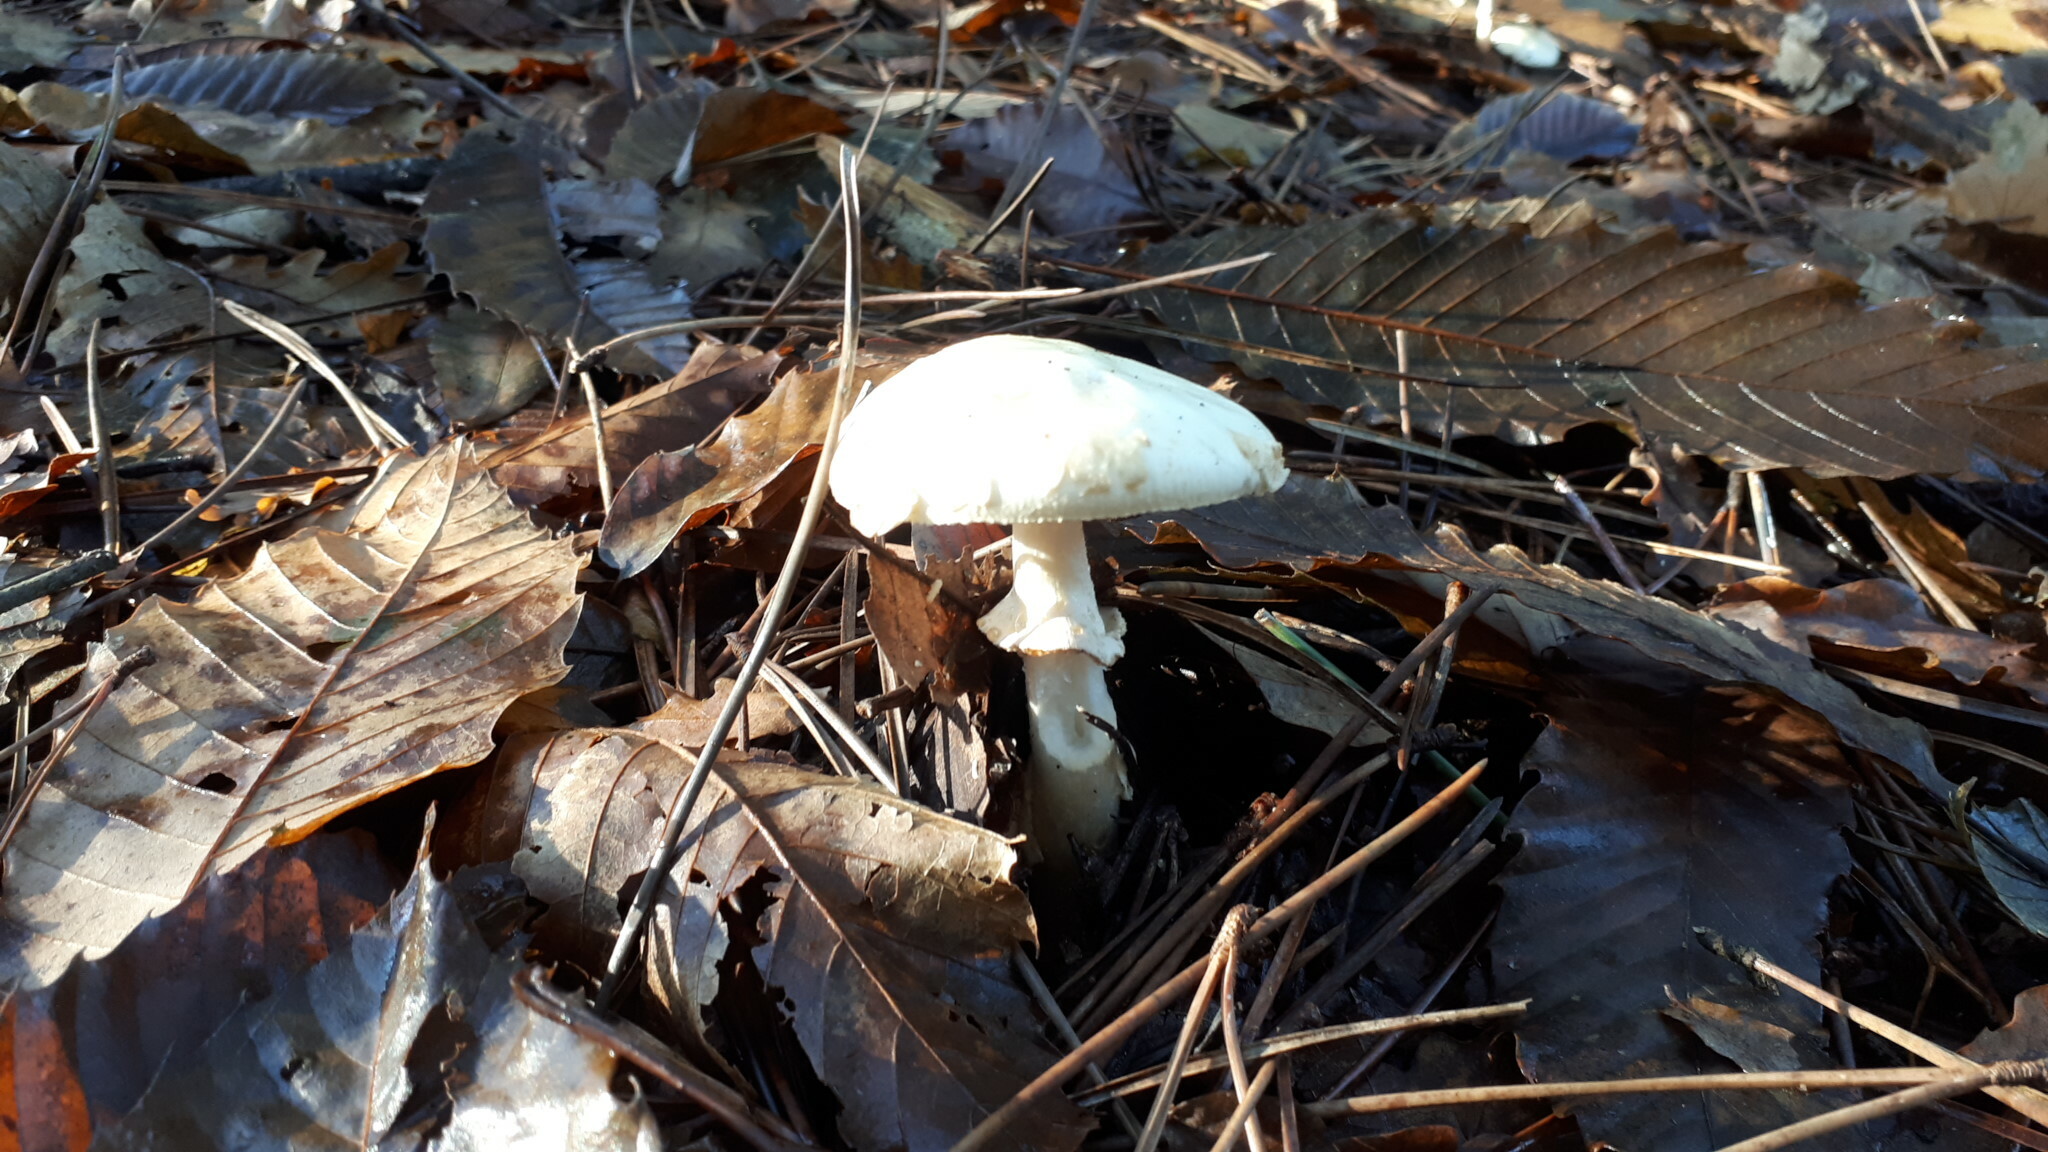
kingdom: Fungi
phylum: Basidiomycota
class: Agaricomycetes
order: Agaricales
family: Amanitaceae
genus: Amanita
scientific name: Amanita citrina
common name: False death-cap
